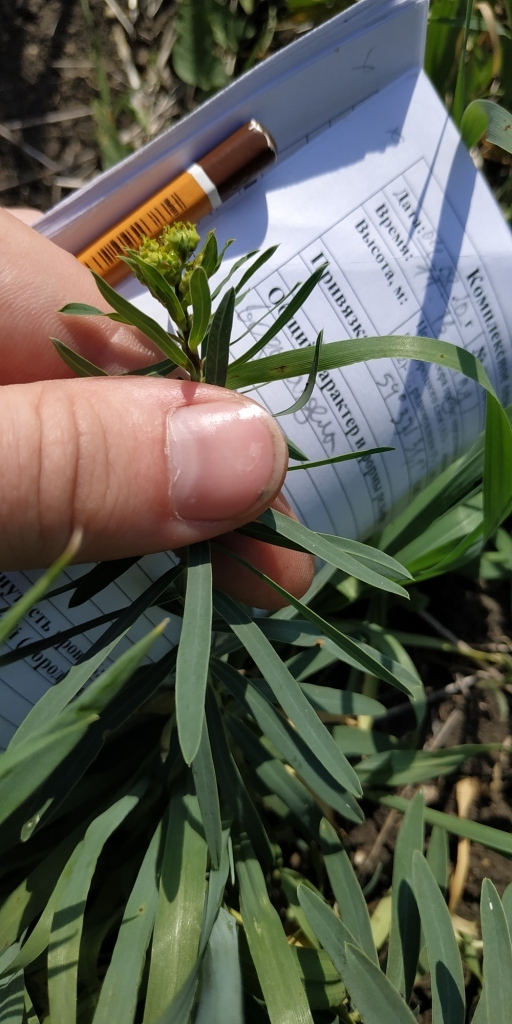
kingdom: Plantae
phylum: Tracheophyta
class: Magnoliopsida
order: Malpighiales
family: Euphorbiaceae
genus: Euphorbia
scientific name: Euphorbia virgata
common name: Leafy spurge
